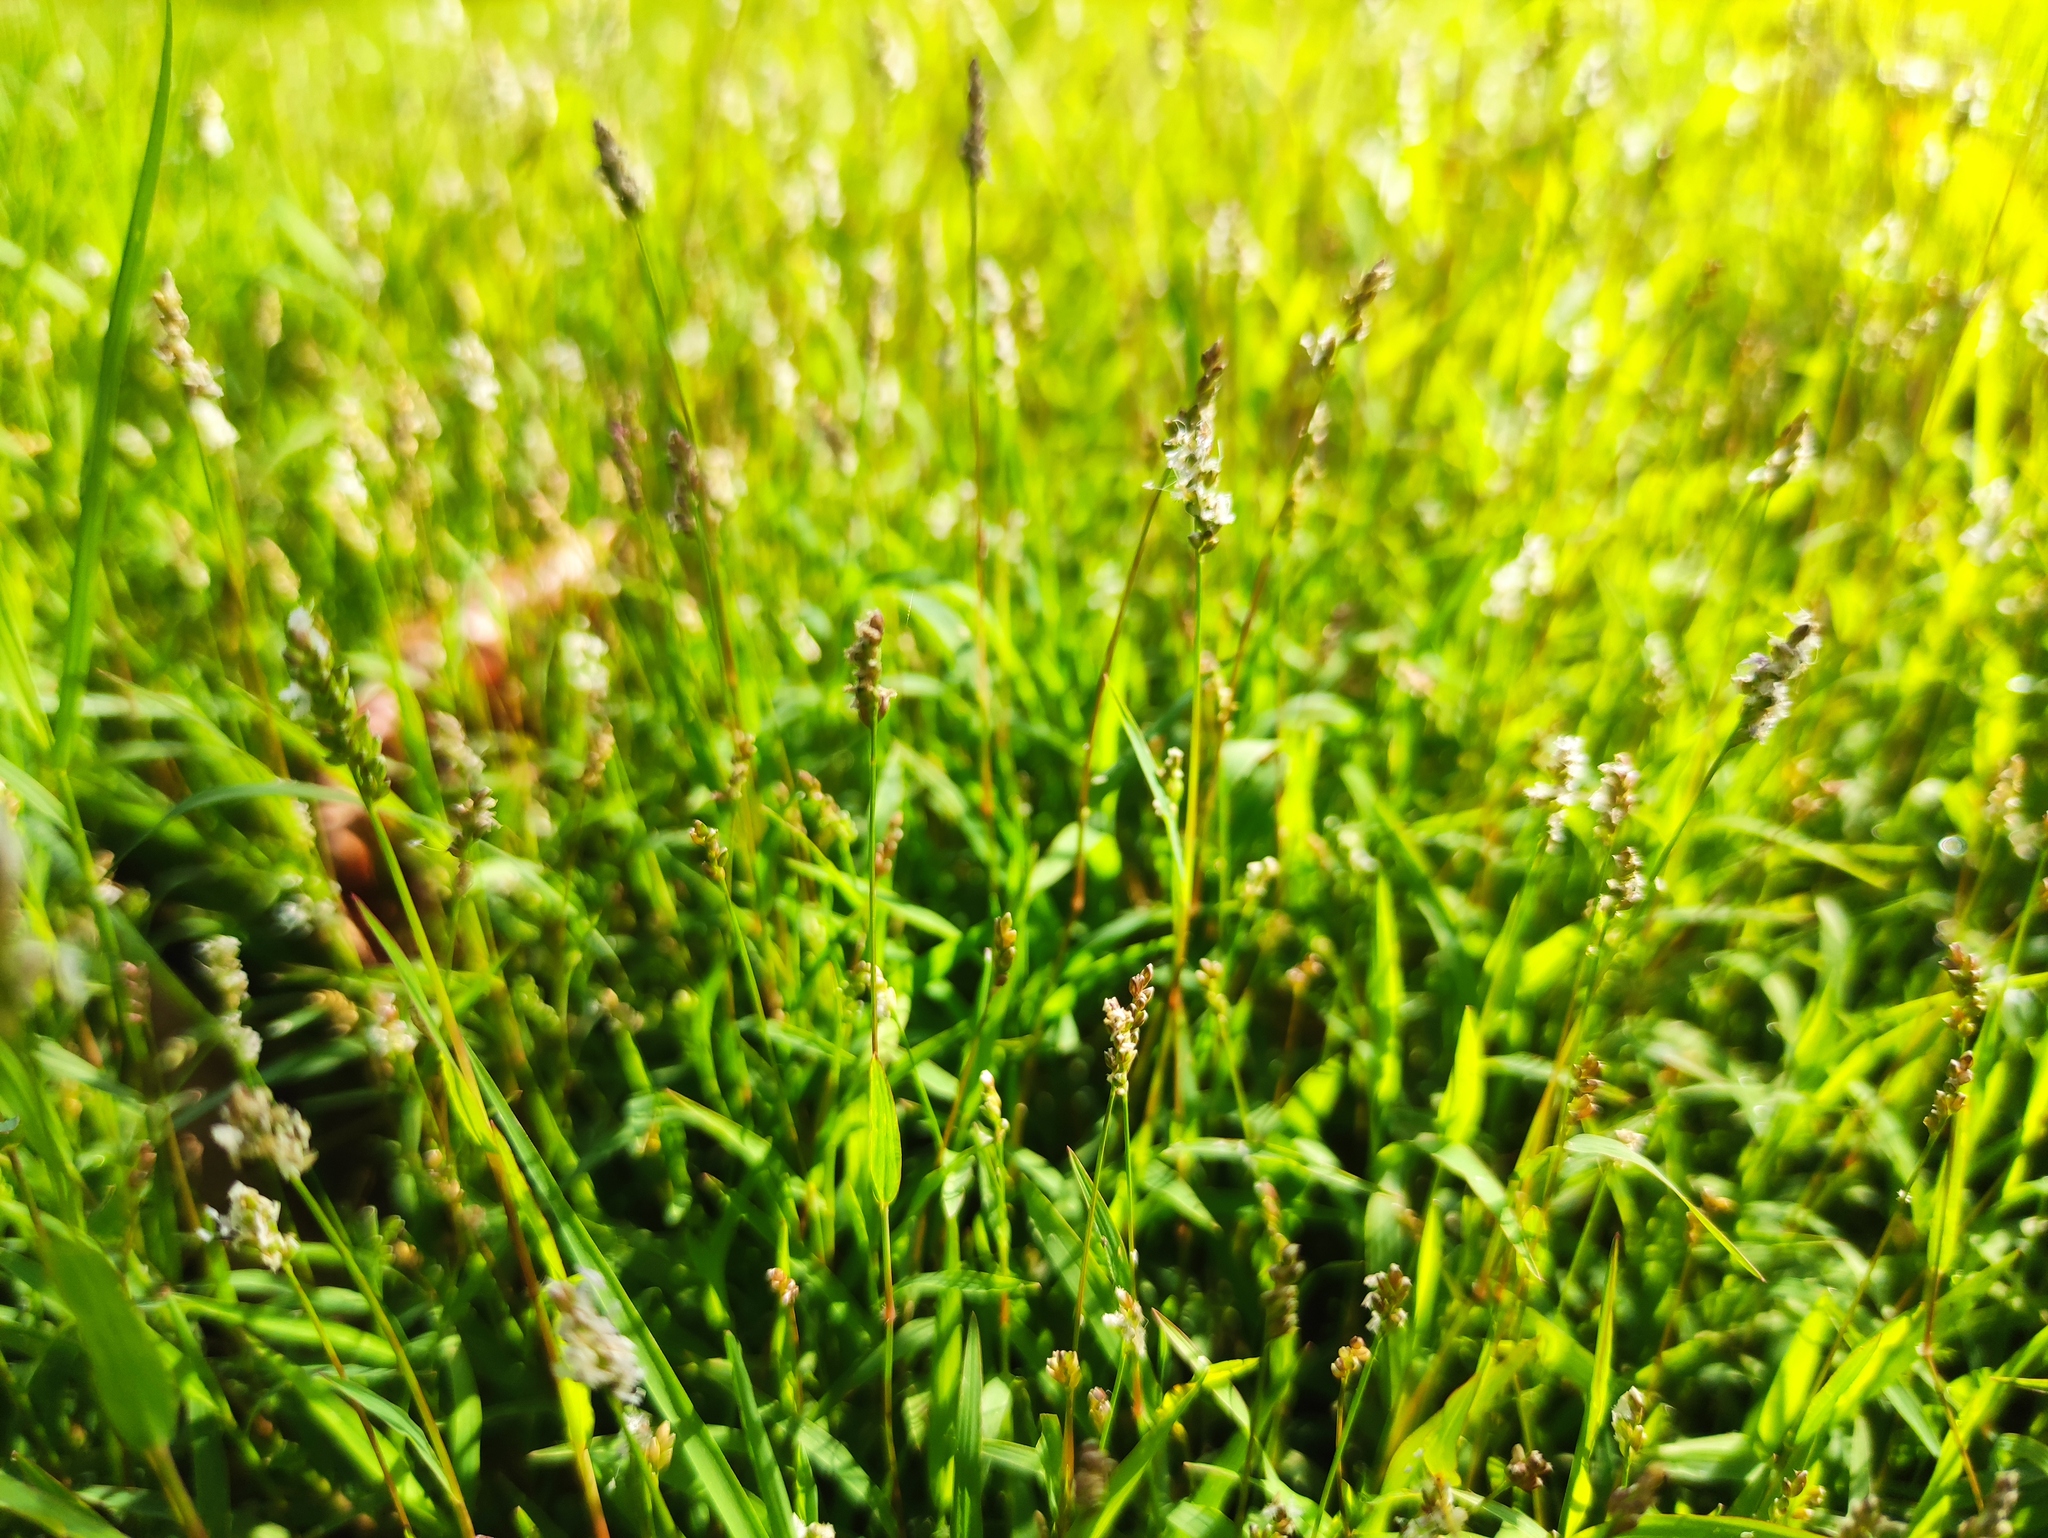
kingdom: Plantae
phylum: Tracheophyta
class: Liliopsida
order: Poales
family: Poaceae
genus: Acroceras
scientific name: Acroceras hubbardii
